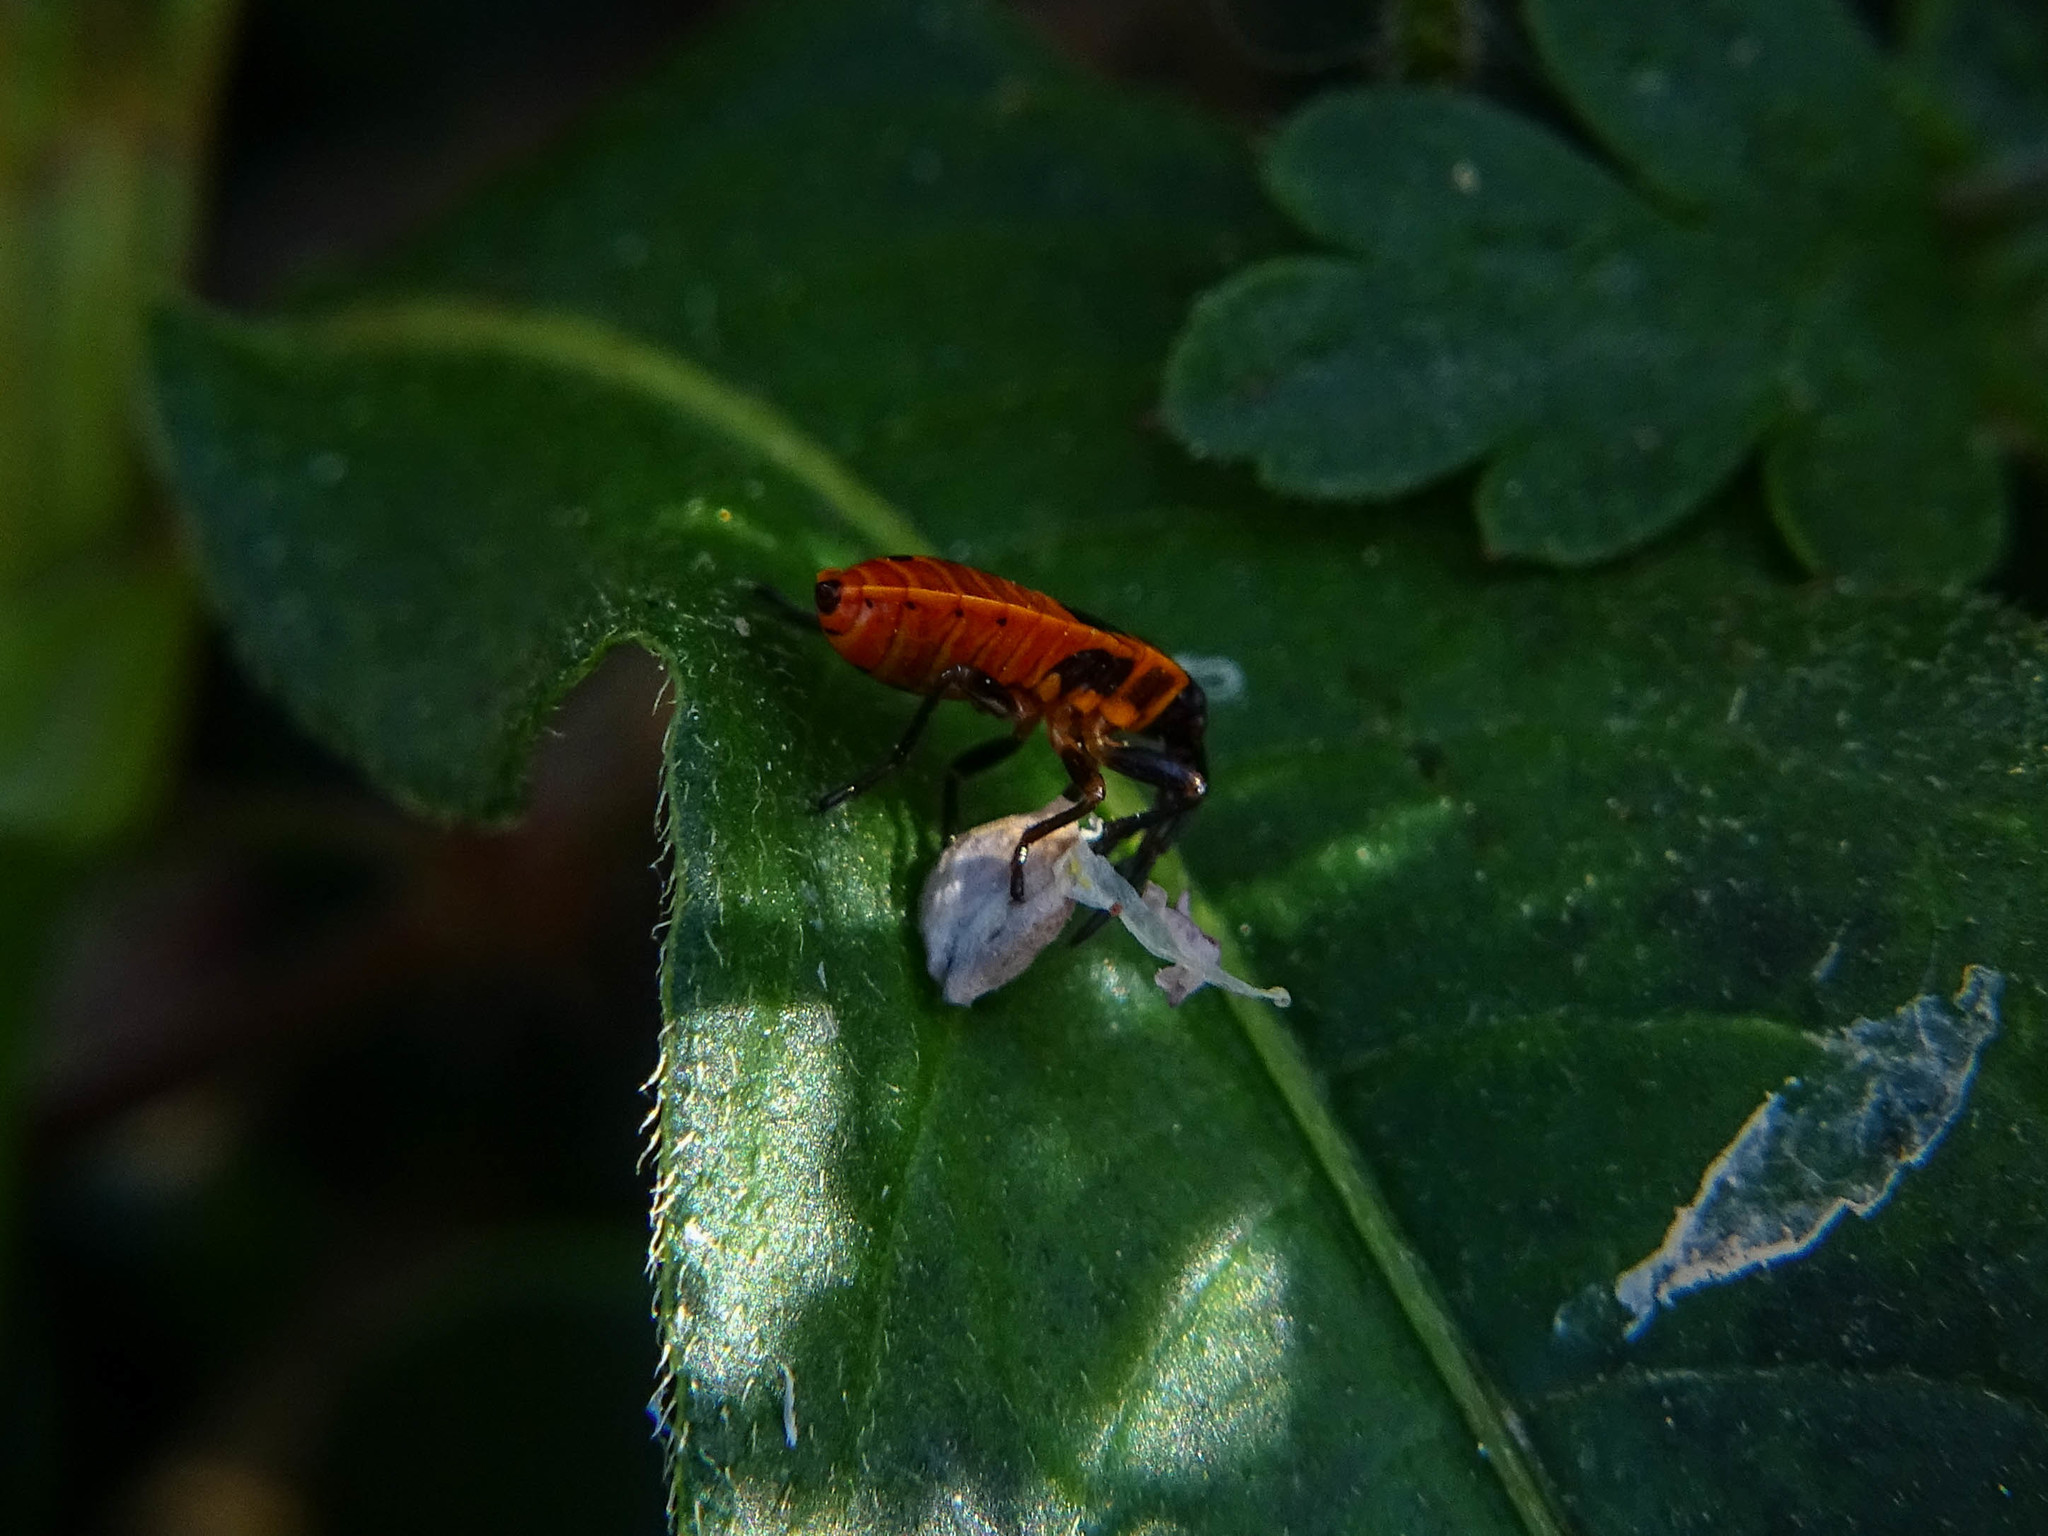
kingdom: Animalia
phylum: Arthropoda
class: Insecta
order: Hemiptera
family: Pyrrhocoridae
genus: Pyrrhocoris
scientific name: Pyrrhocoris apterus
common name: Firebug
